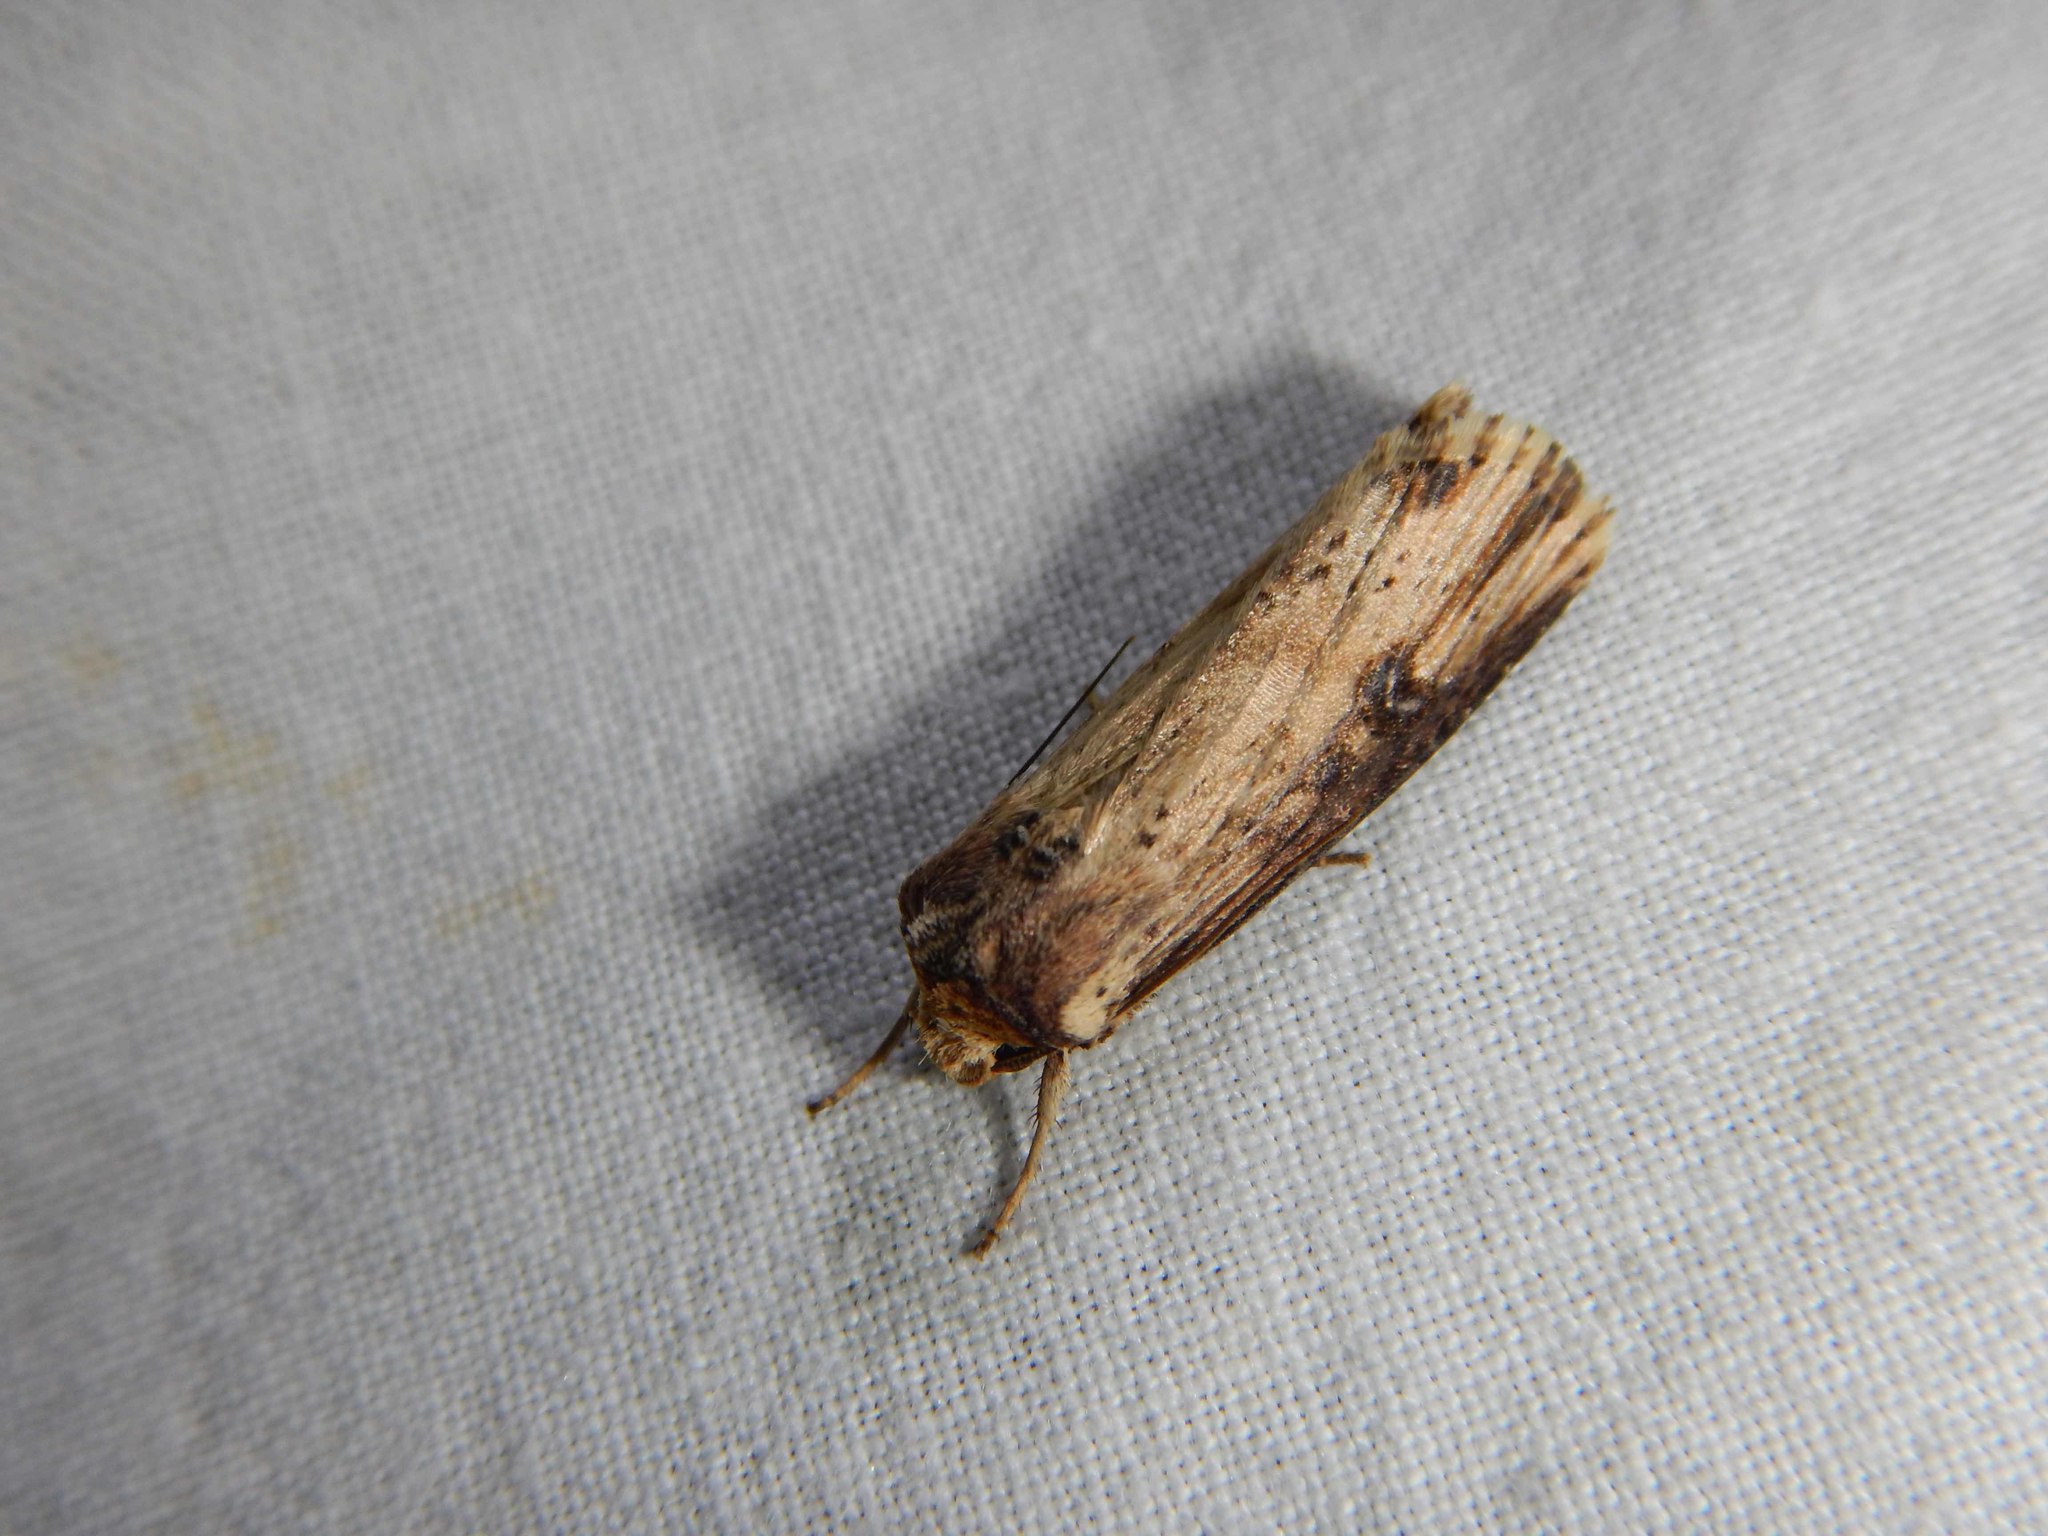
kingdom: Animalia
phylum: Arthropoda
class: Insecta
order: Lepidoptera
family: Noctuidae
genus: Axylia
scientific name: Axylia putris
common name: Flame
